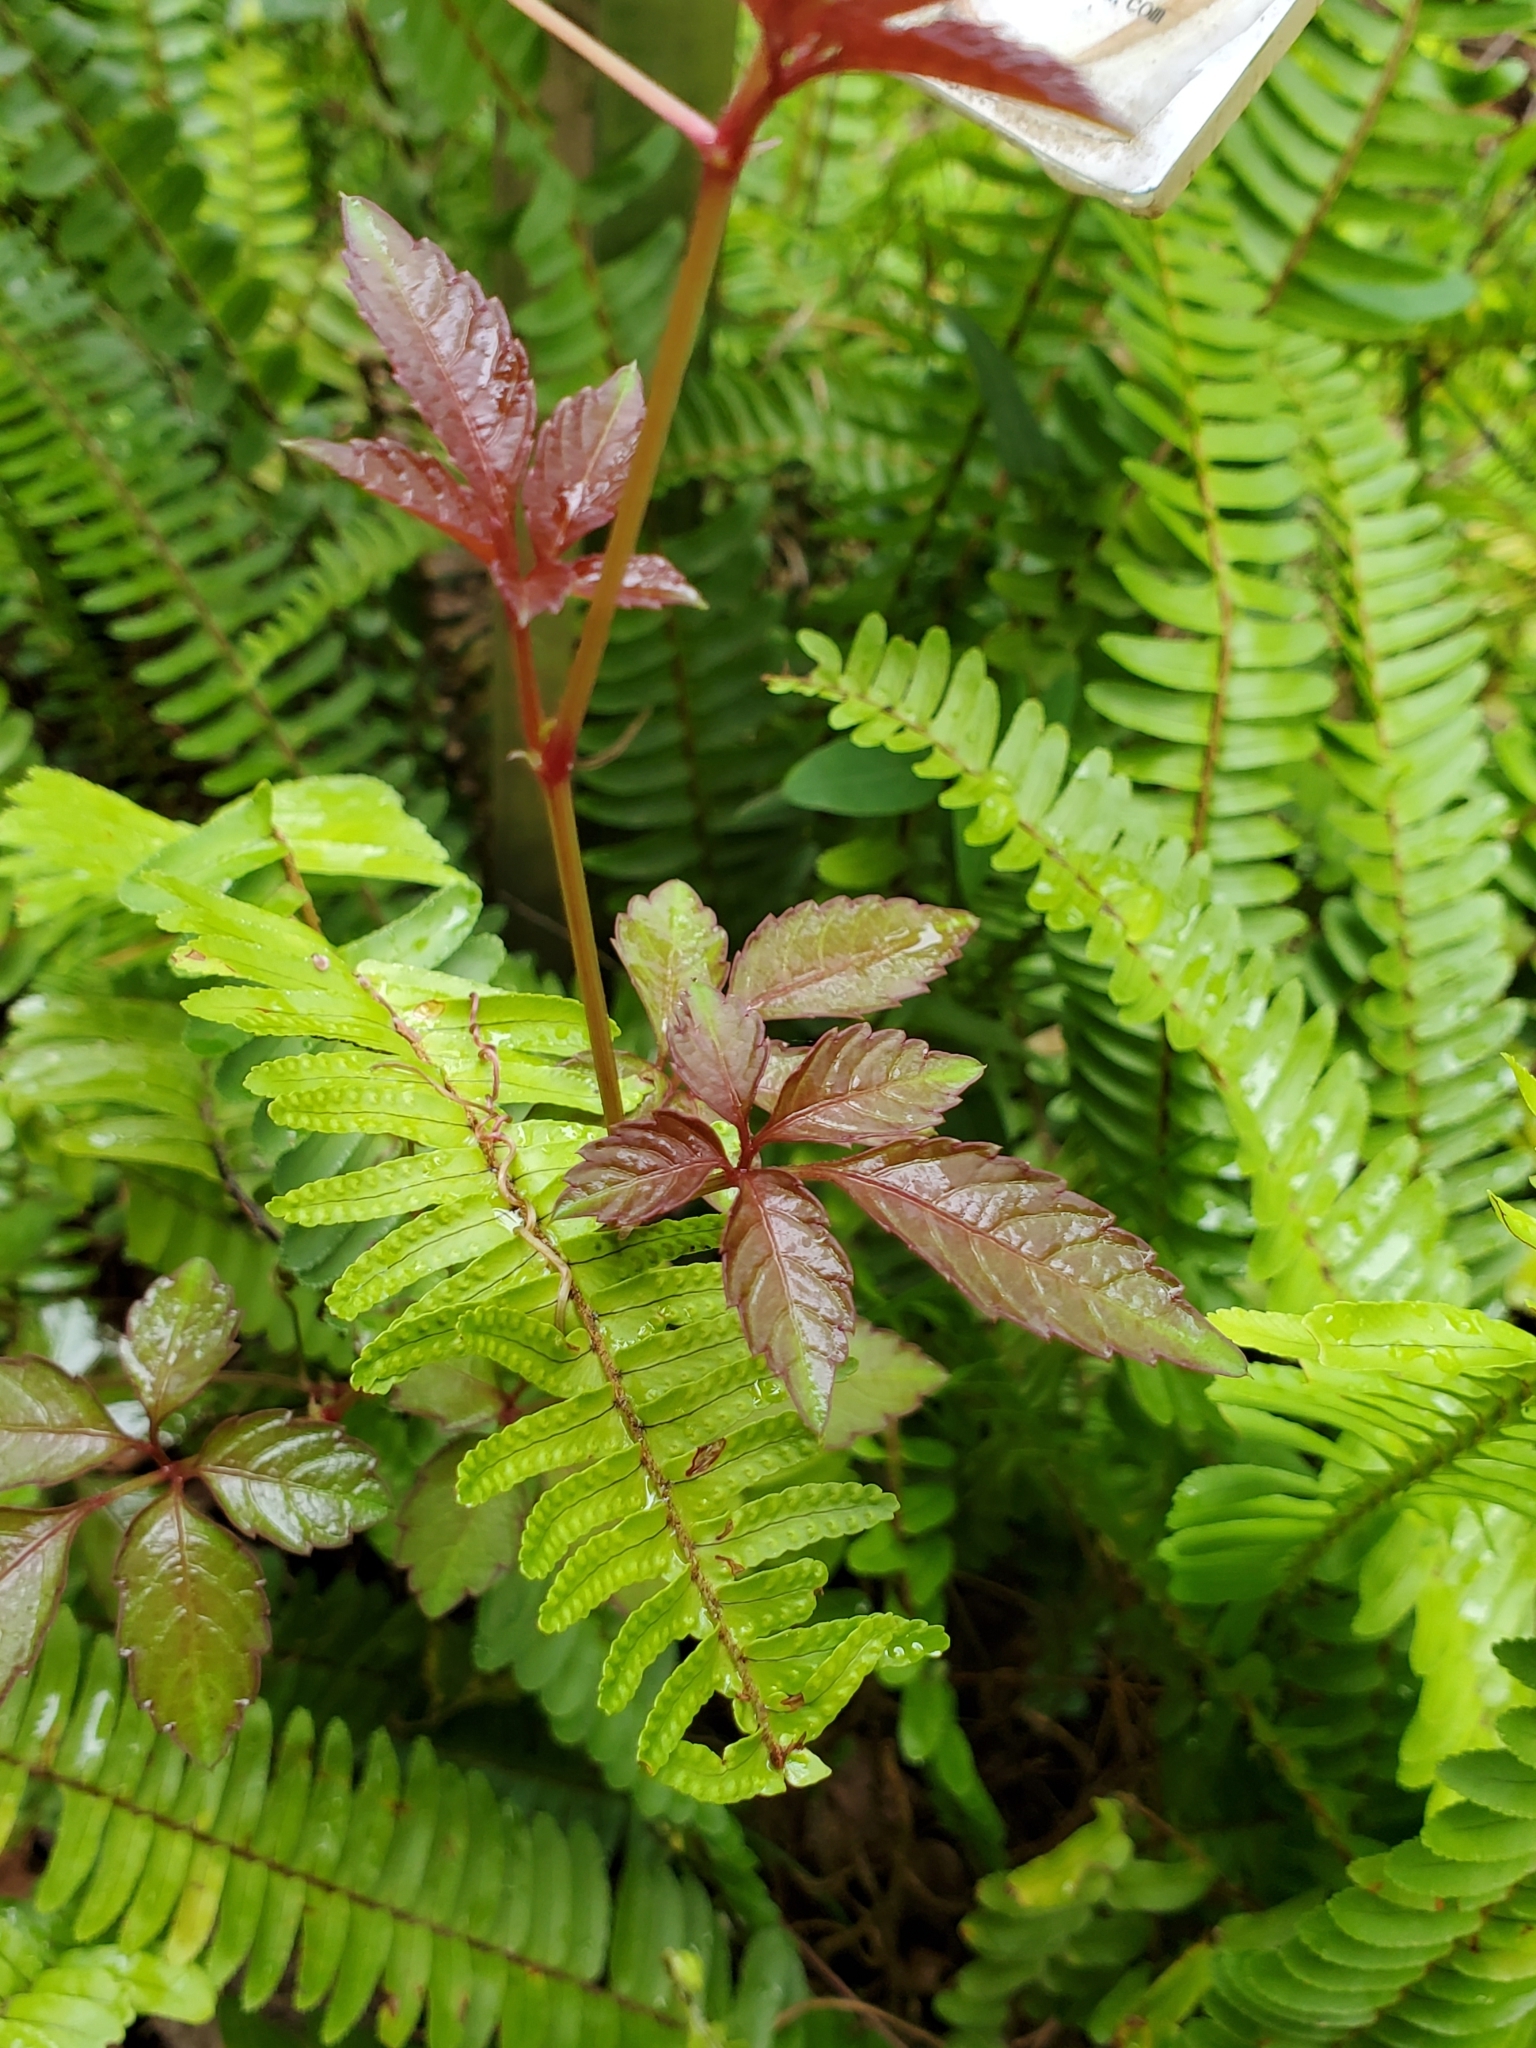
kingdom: Plantae
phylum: Tracheophyta
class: Magnoliopsida
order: Vitales
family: Vitaceae
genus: Causonis
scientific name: Causonis japonica
